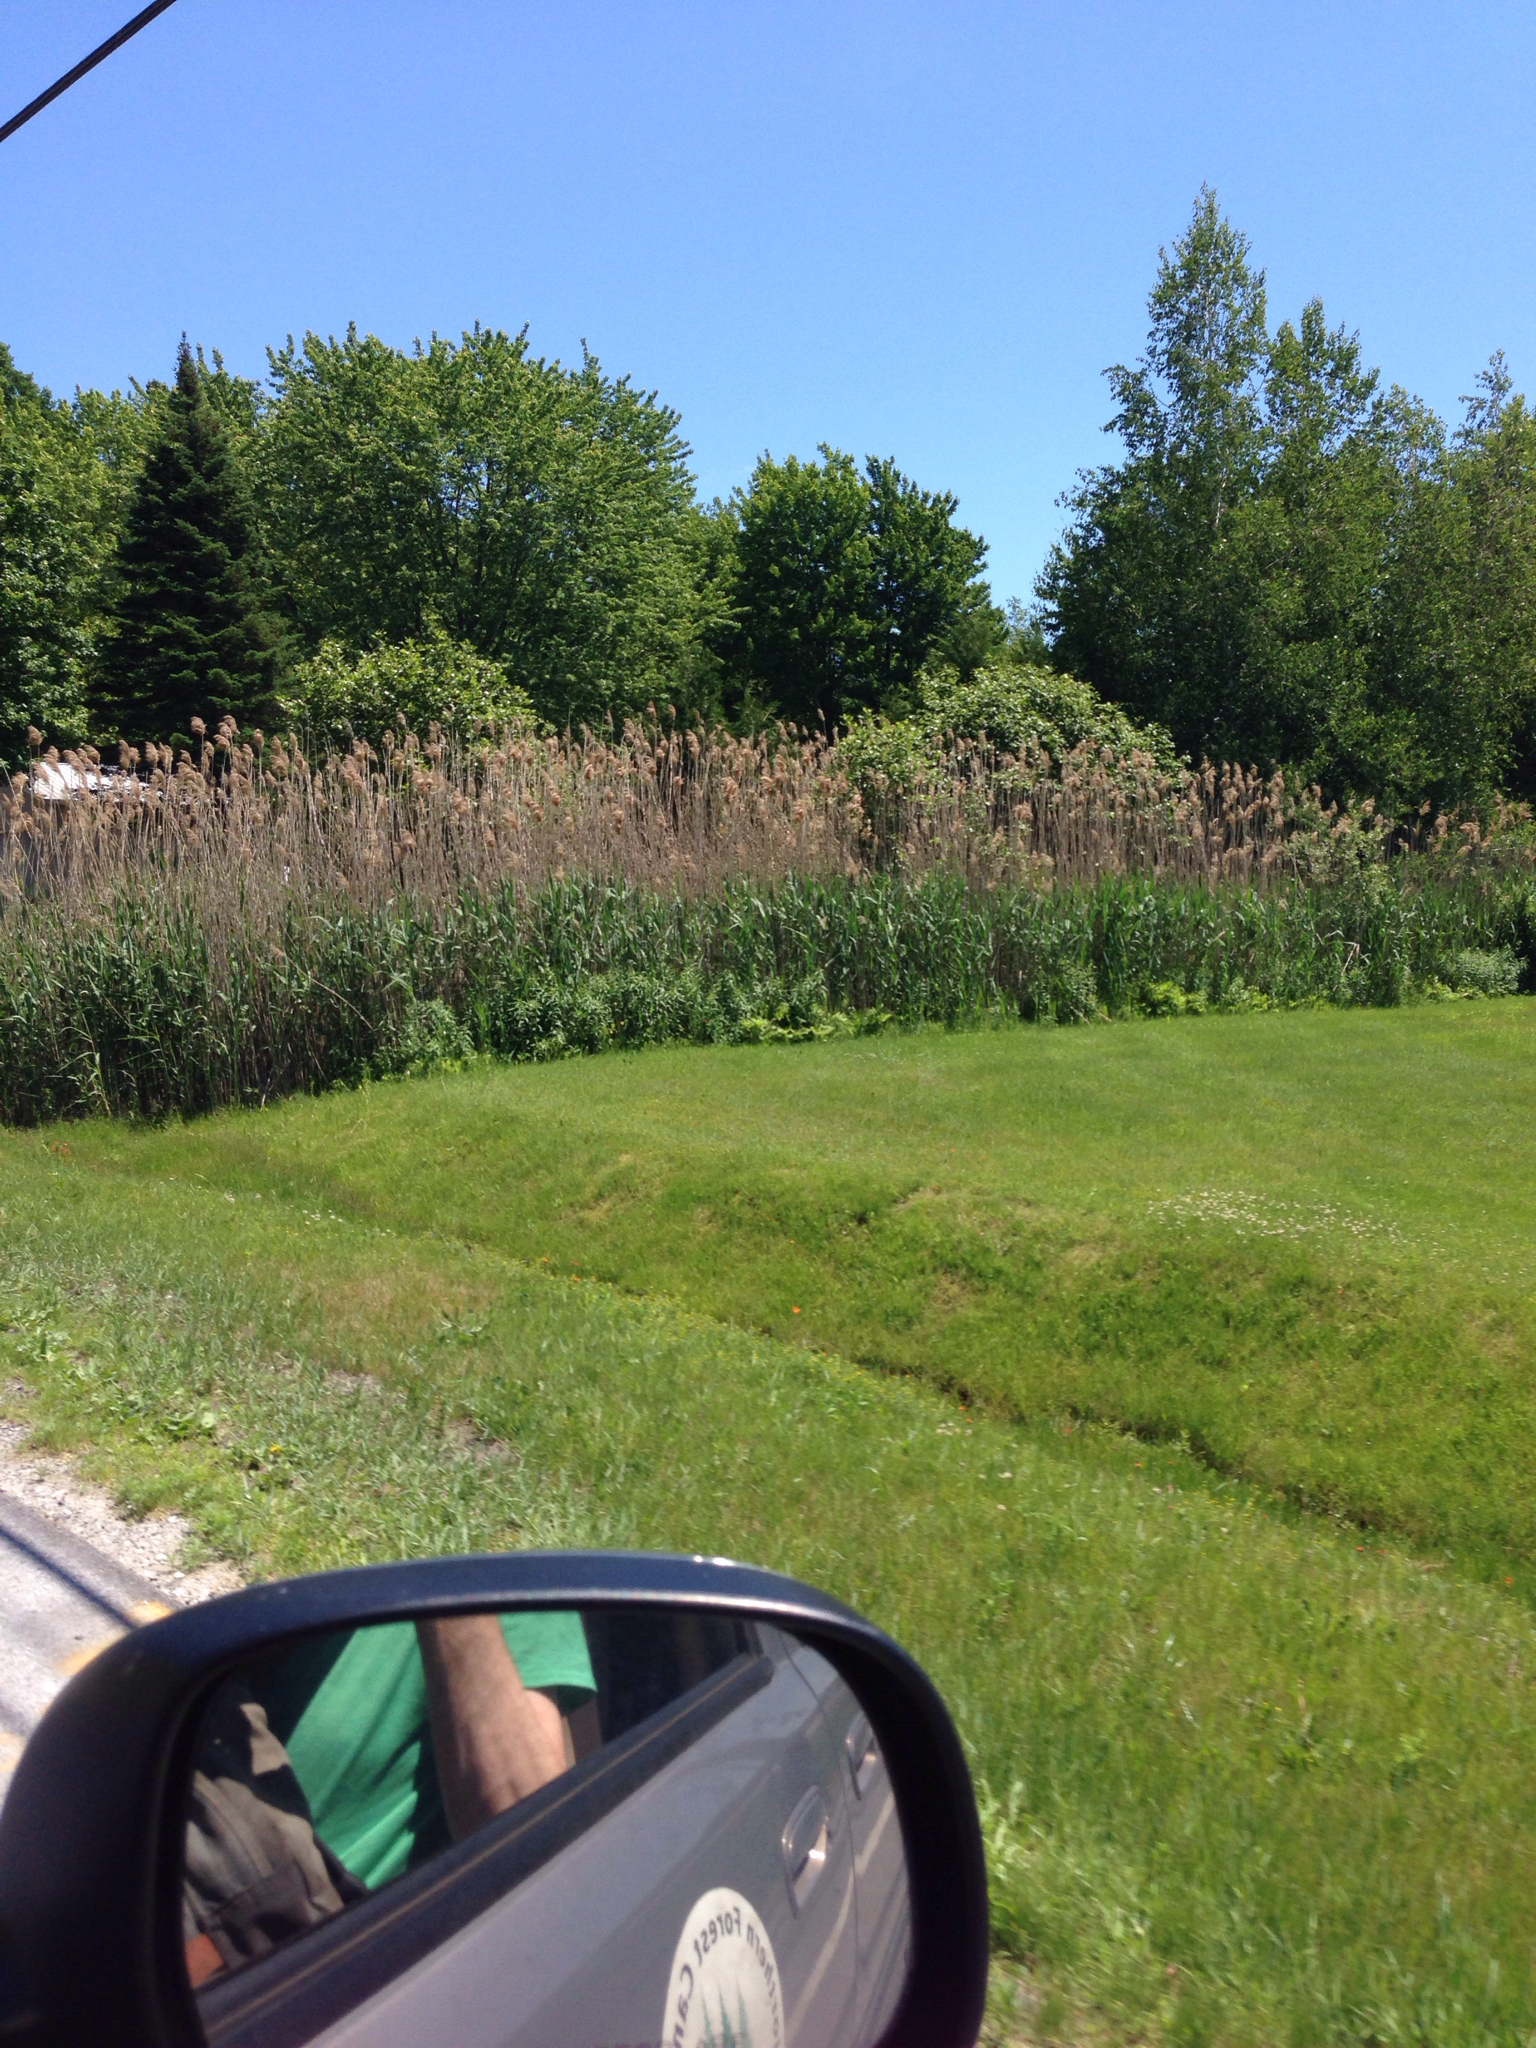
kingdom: Plantae
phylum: Tracheophyta
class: Liliopsida
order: Poales
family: Poaceae
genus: Phragmites
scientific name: Phragmites australis
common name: Common reed
